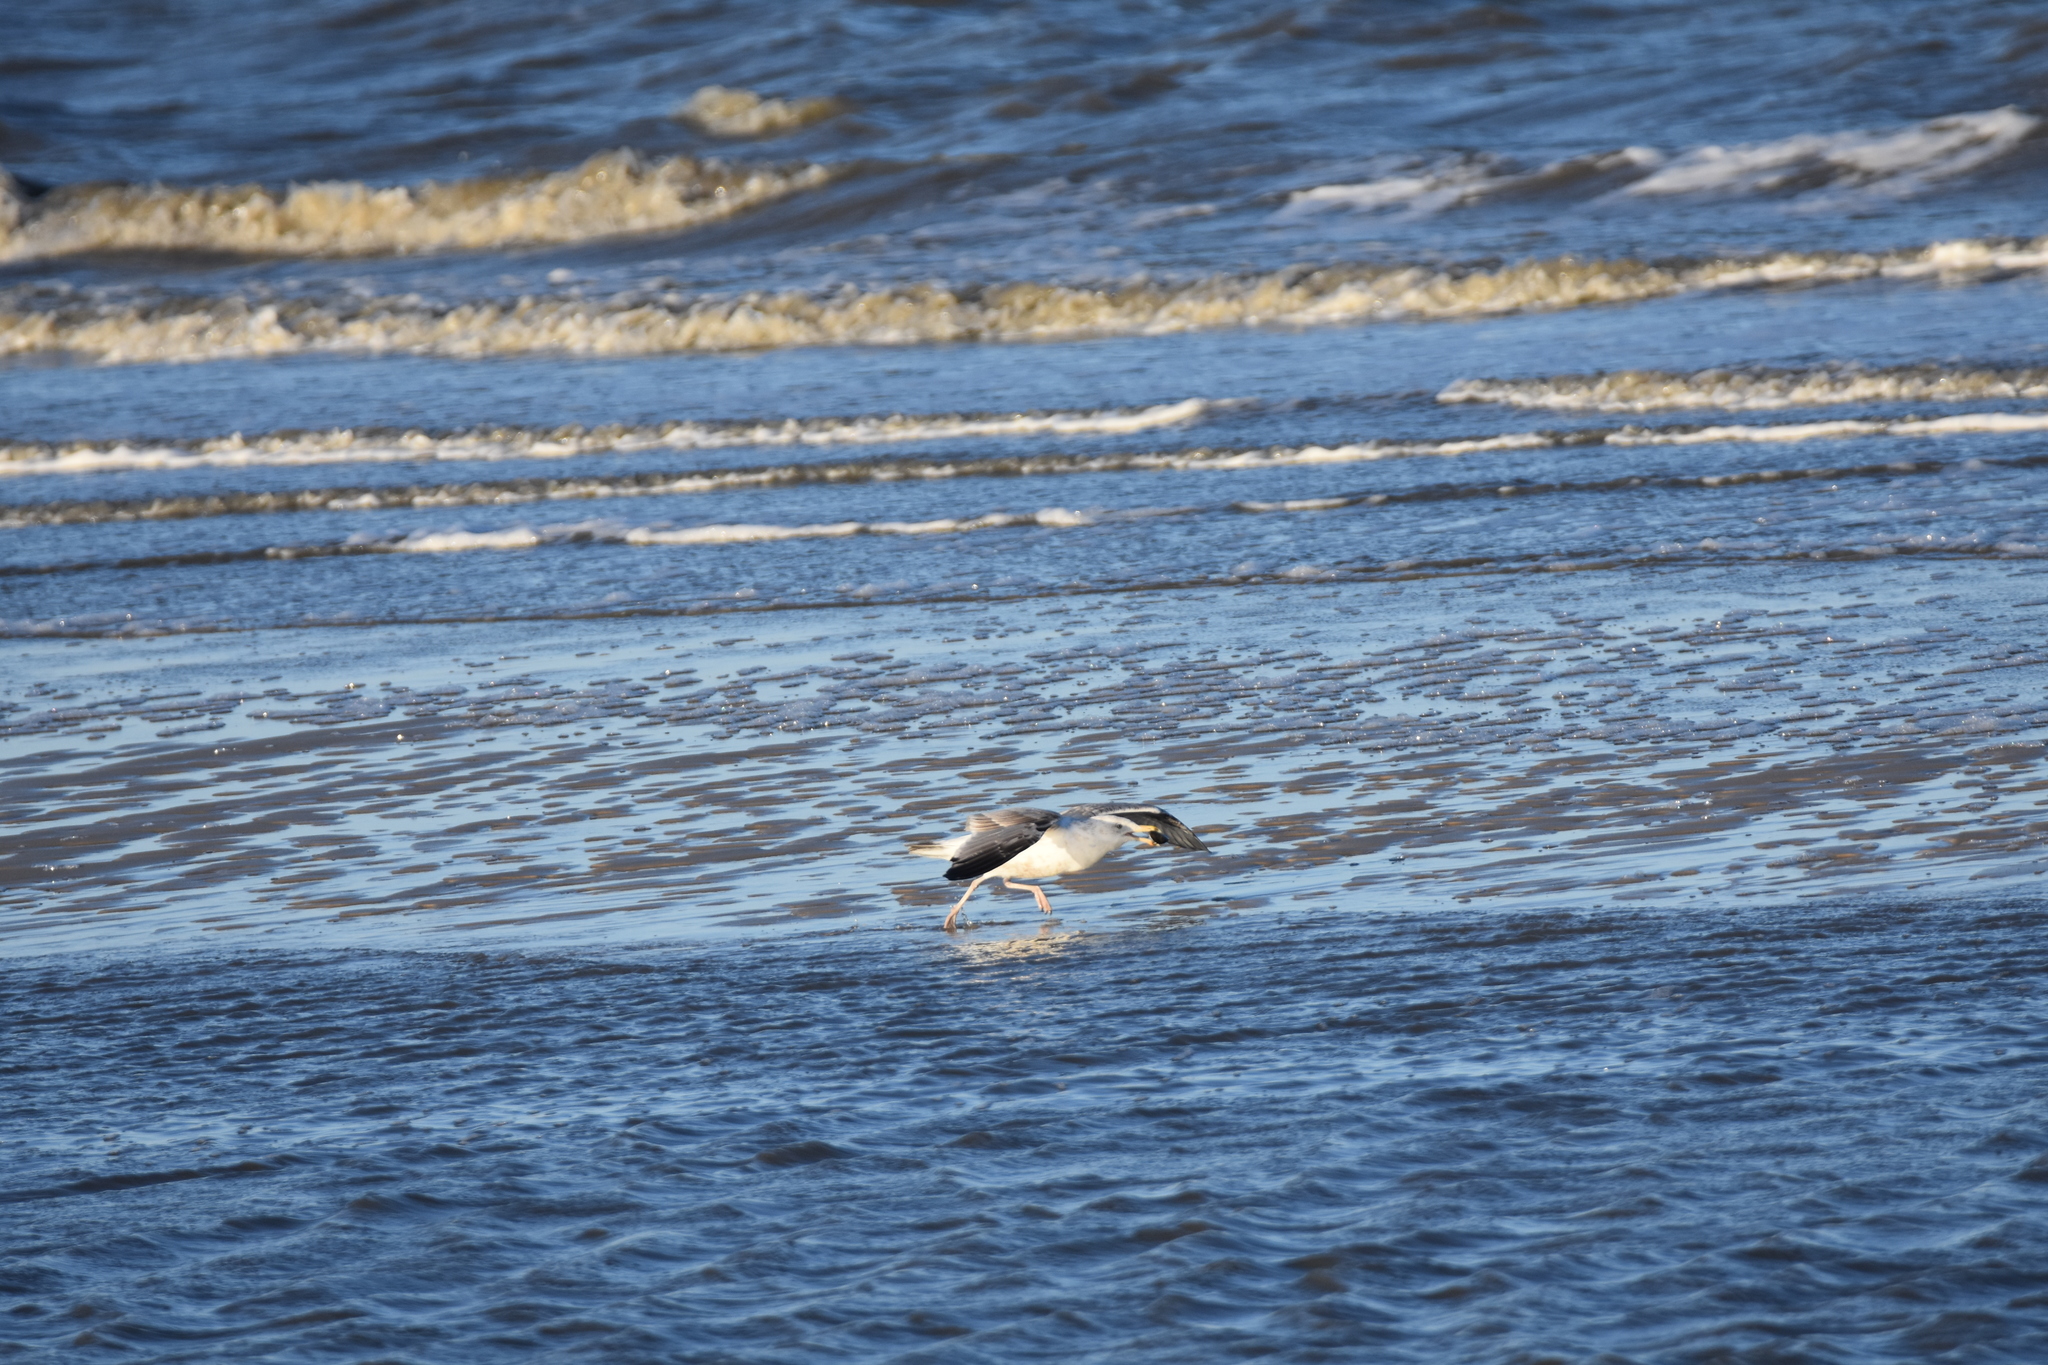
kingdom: Animalia
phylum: Chordata
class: Aves
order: Charadriiformes
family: Laridae
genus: Larus
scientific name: Larus argentatus
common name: Herring gull
